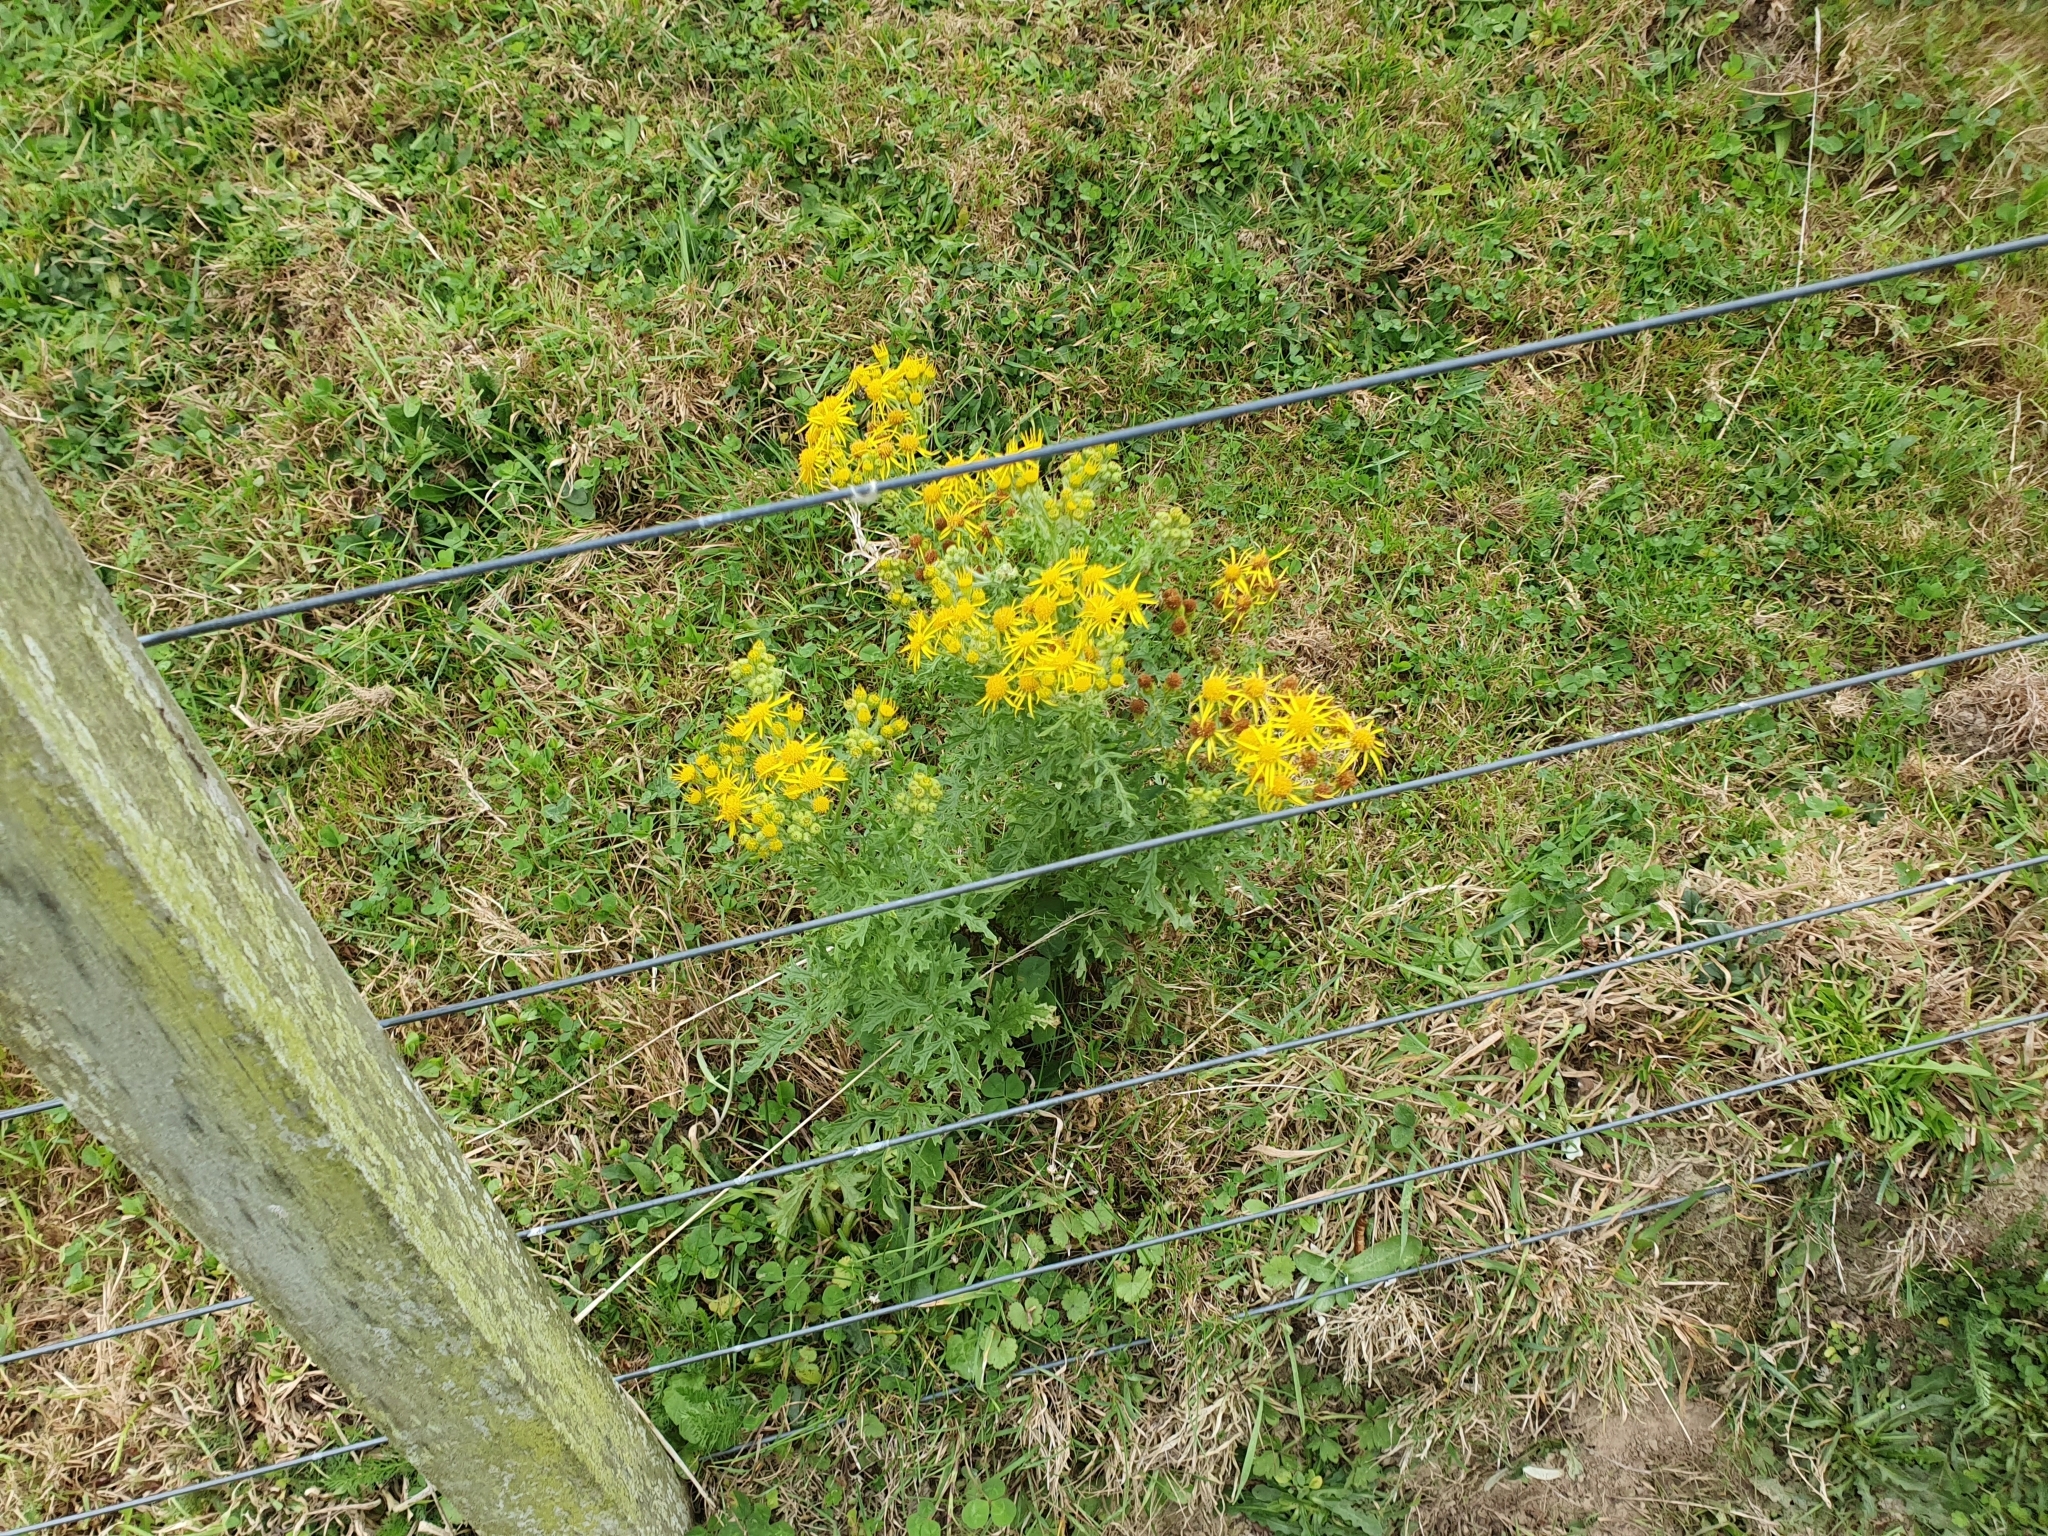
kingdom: Plantae
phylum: Tracheophyta
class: Magnoliopsida
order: Asterales
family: Asteraceae
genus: Jacobaea
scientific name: Jacobaea vulgaris
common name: Stinking willie
